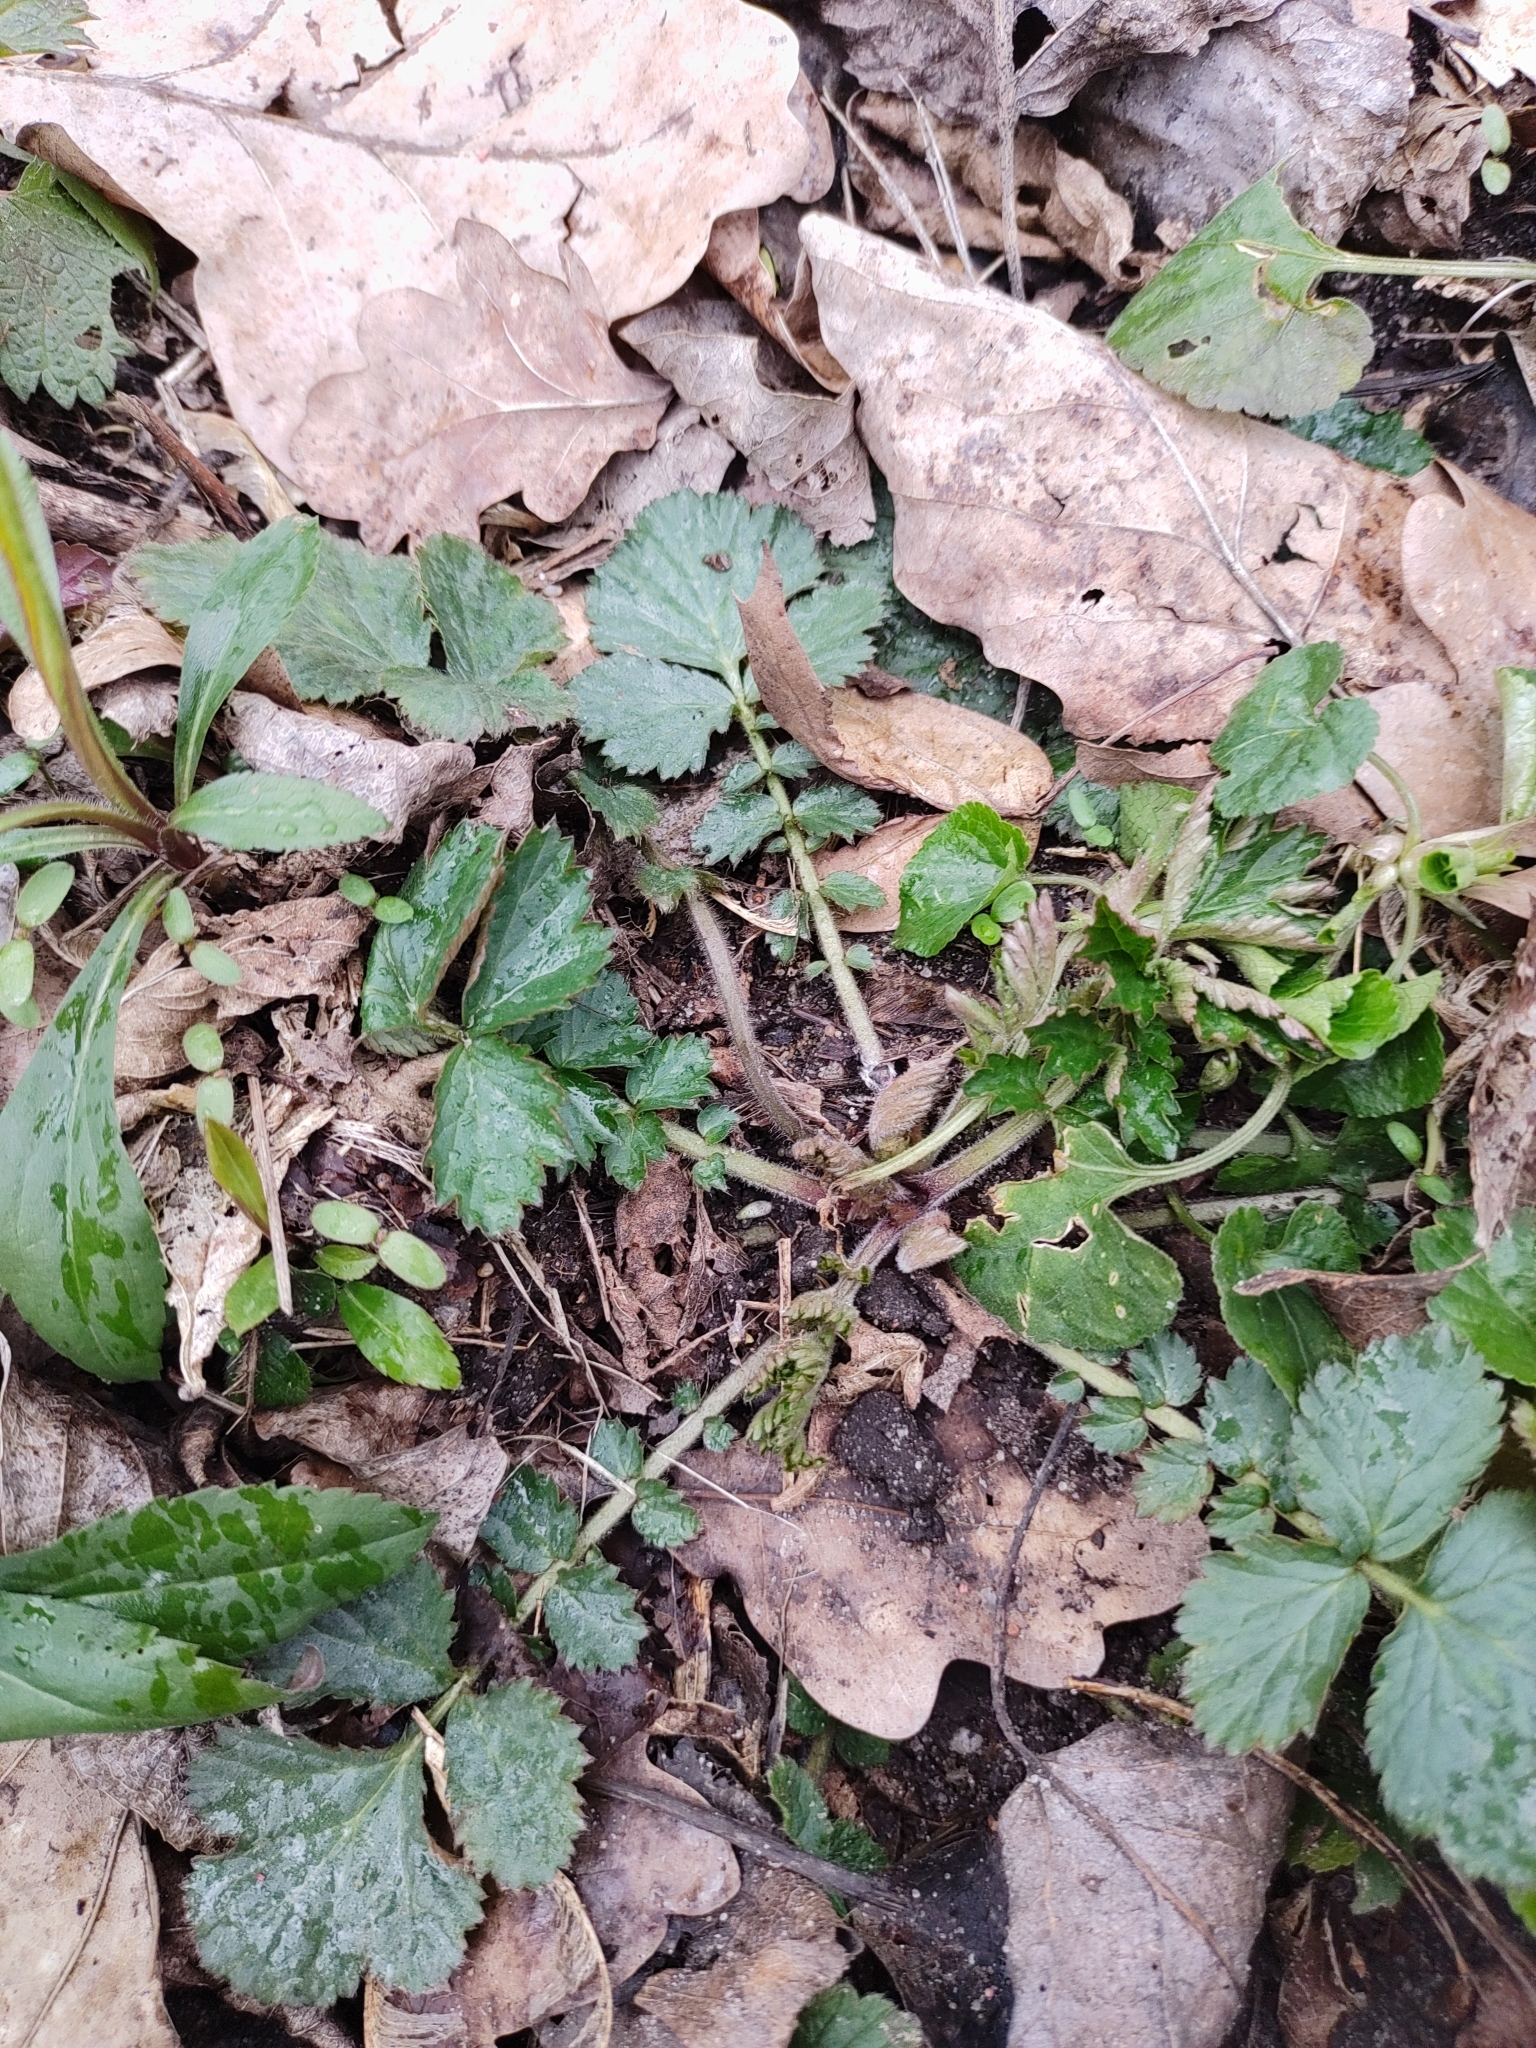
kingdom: Plantae
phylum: Tracheophyta
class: Magnoliopsida
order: Rosales
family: Rosaceae
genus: Geum
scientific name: Geum urbanum
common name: Wood avens
